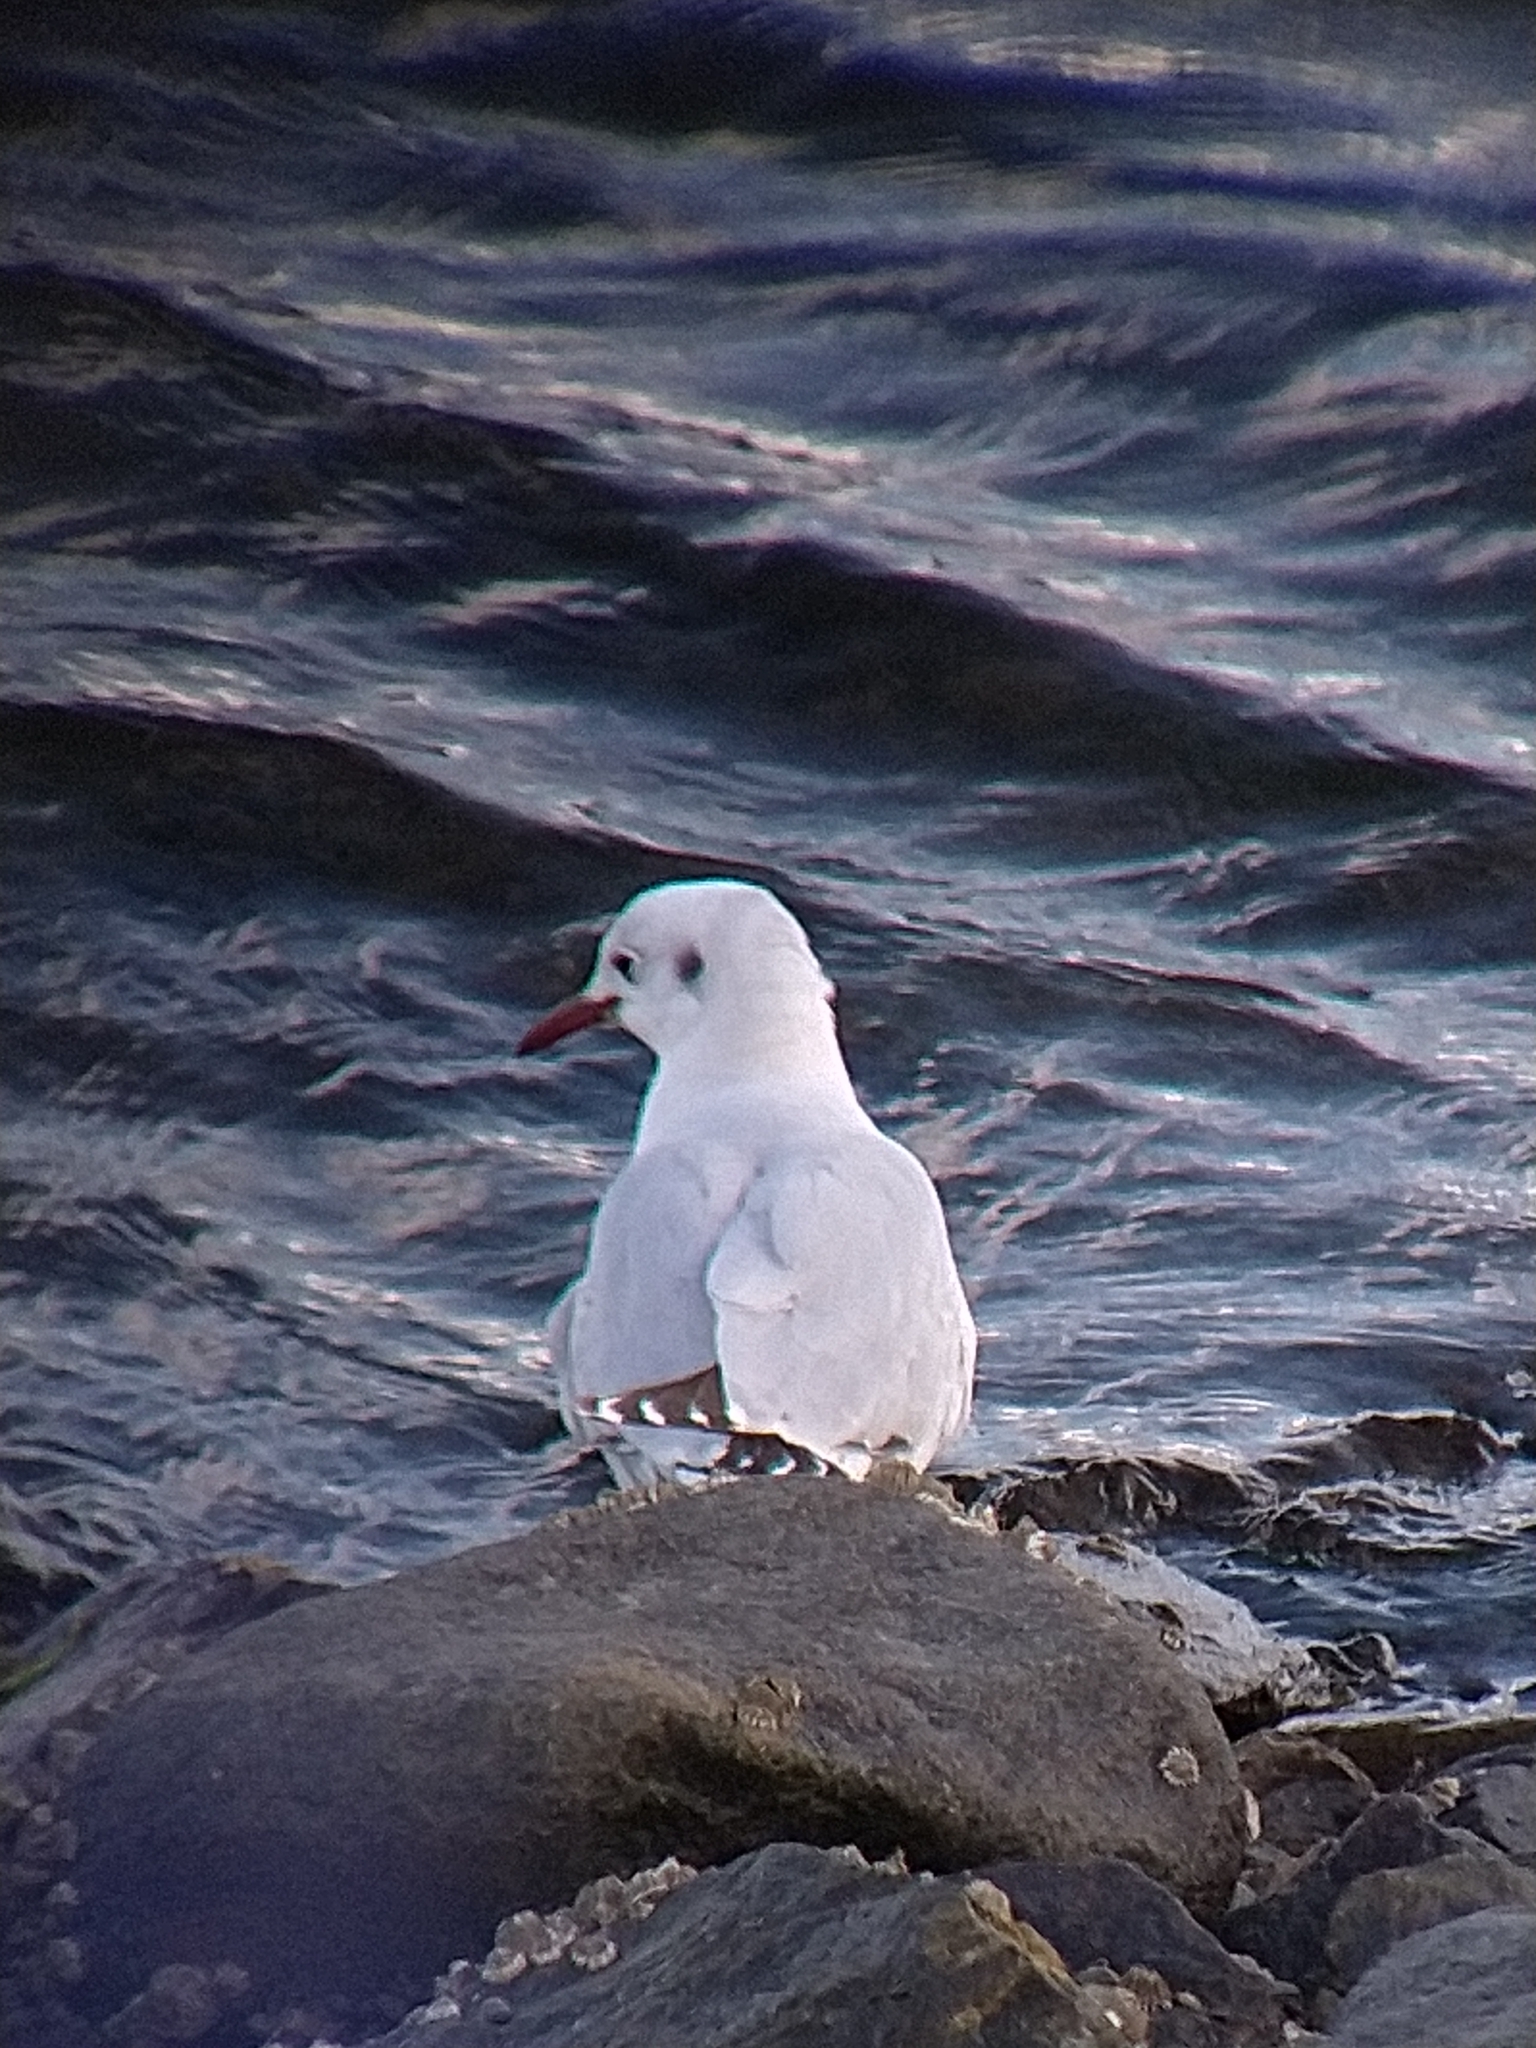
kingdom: Animalia
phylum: Chordata
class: Aves
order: Charadriiformes
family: Laridae
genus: Chroicocephalus
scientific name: Chroicocephalus maculipennis
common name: Brown-hooded gull
